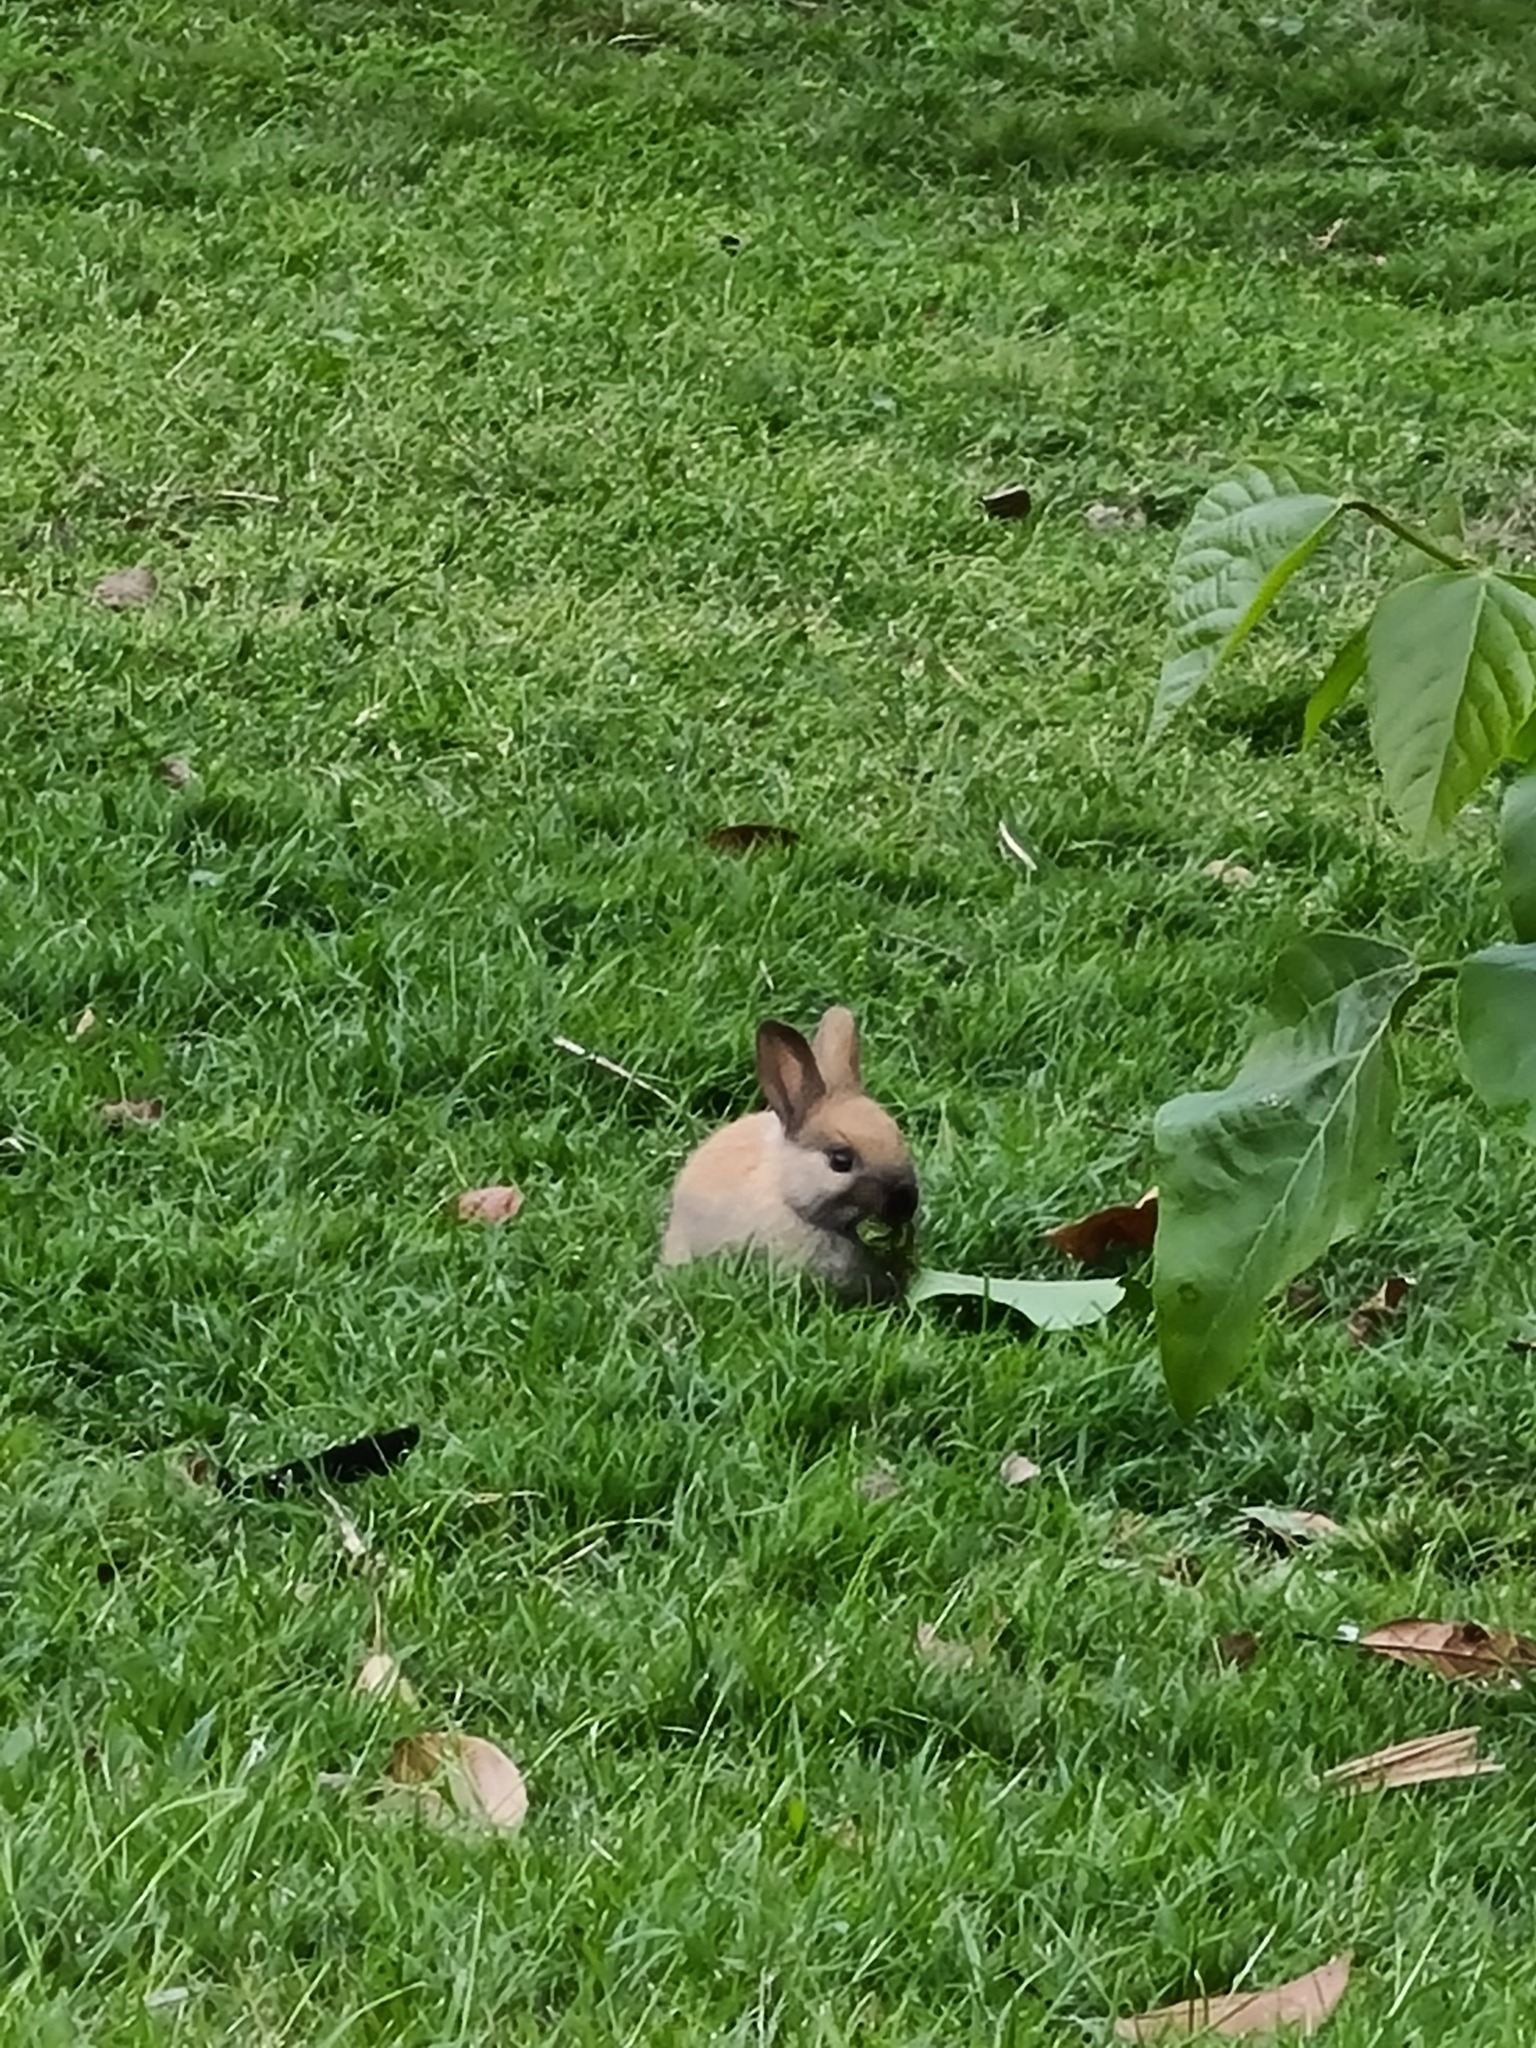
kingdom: Animalia
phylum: Chordata
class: Mammalia
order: Lagomorpha
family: Leporidae
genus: Oryctolagus
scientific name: Oryctolagus cuniculus
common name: European rabbit
